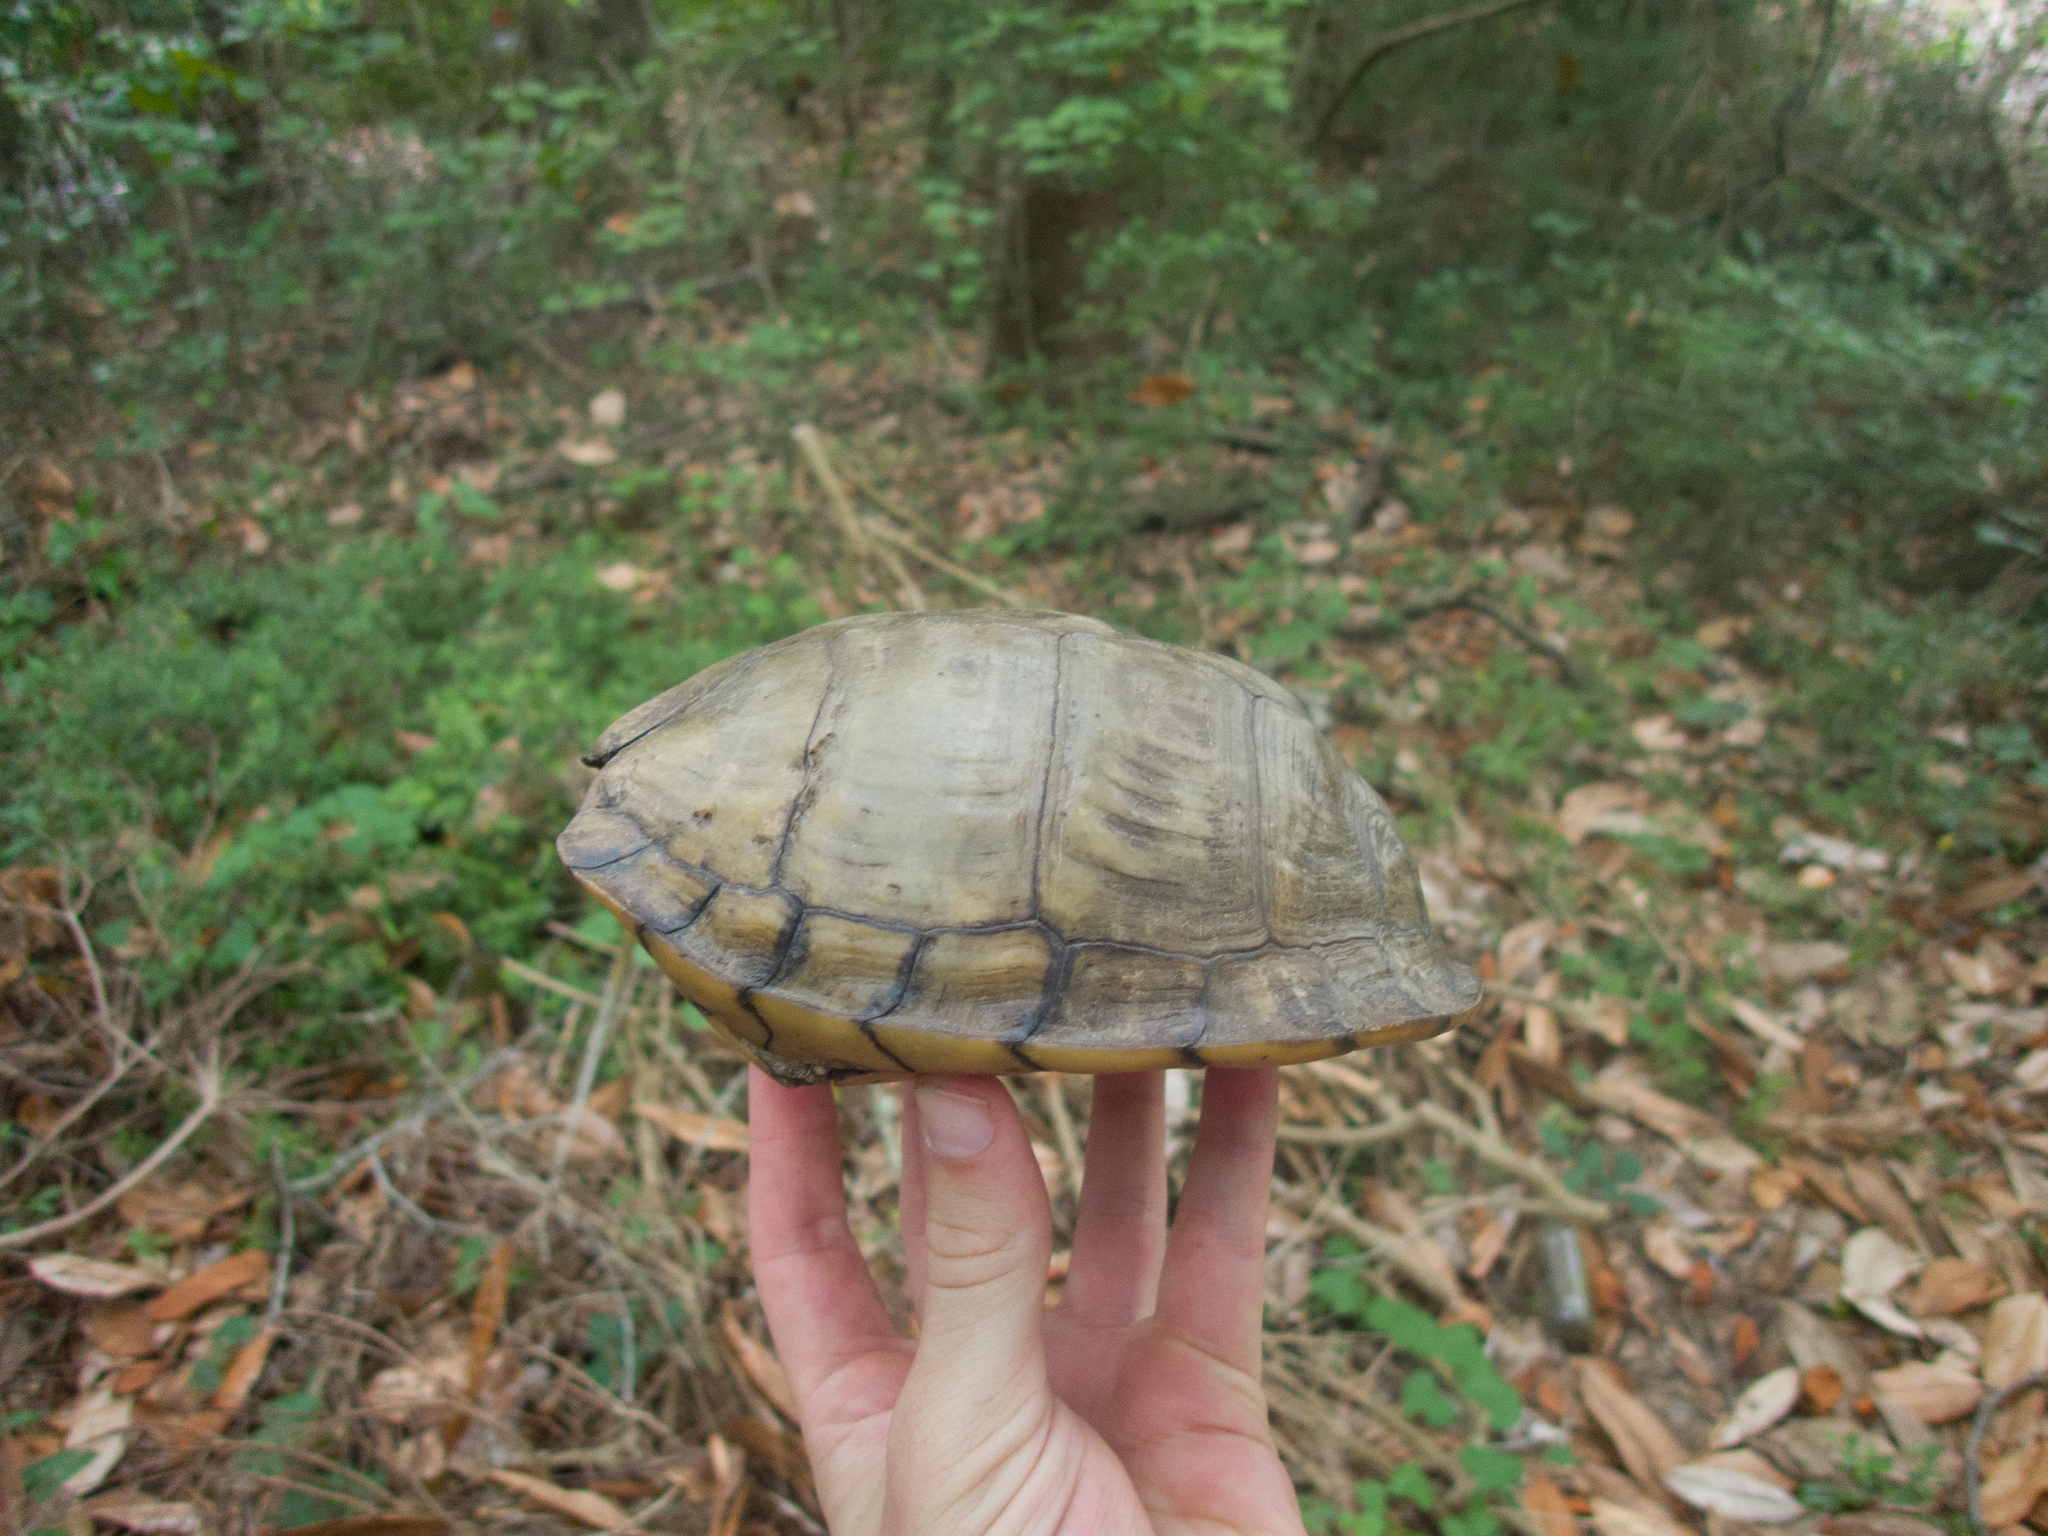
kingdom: Animalia
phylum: Chordata
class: Testudines
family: Emydidae
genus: Terrapene
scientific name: Terrapene carolina
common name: Common box turtle
